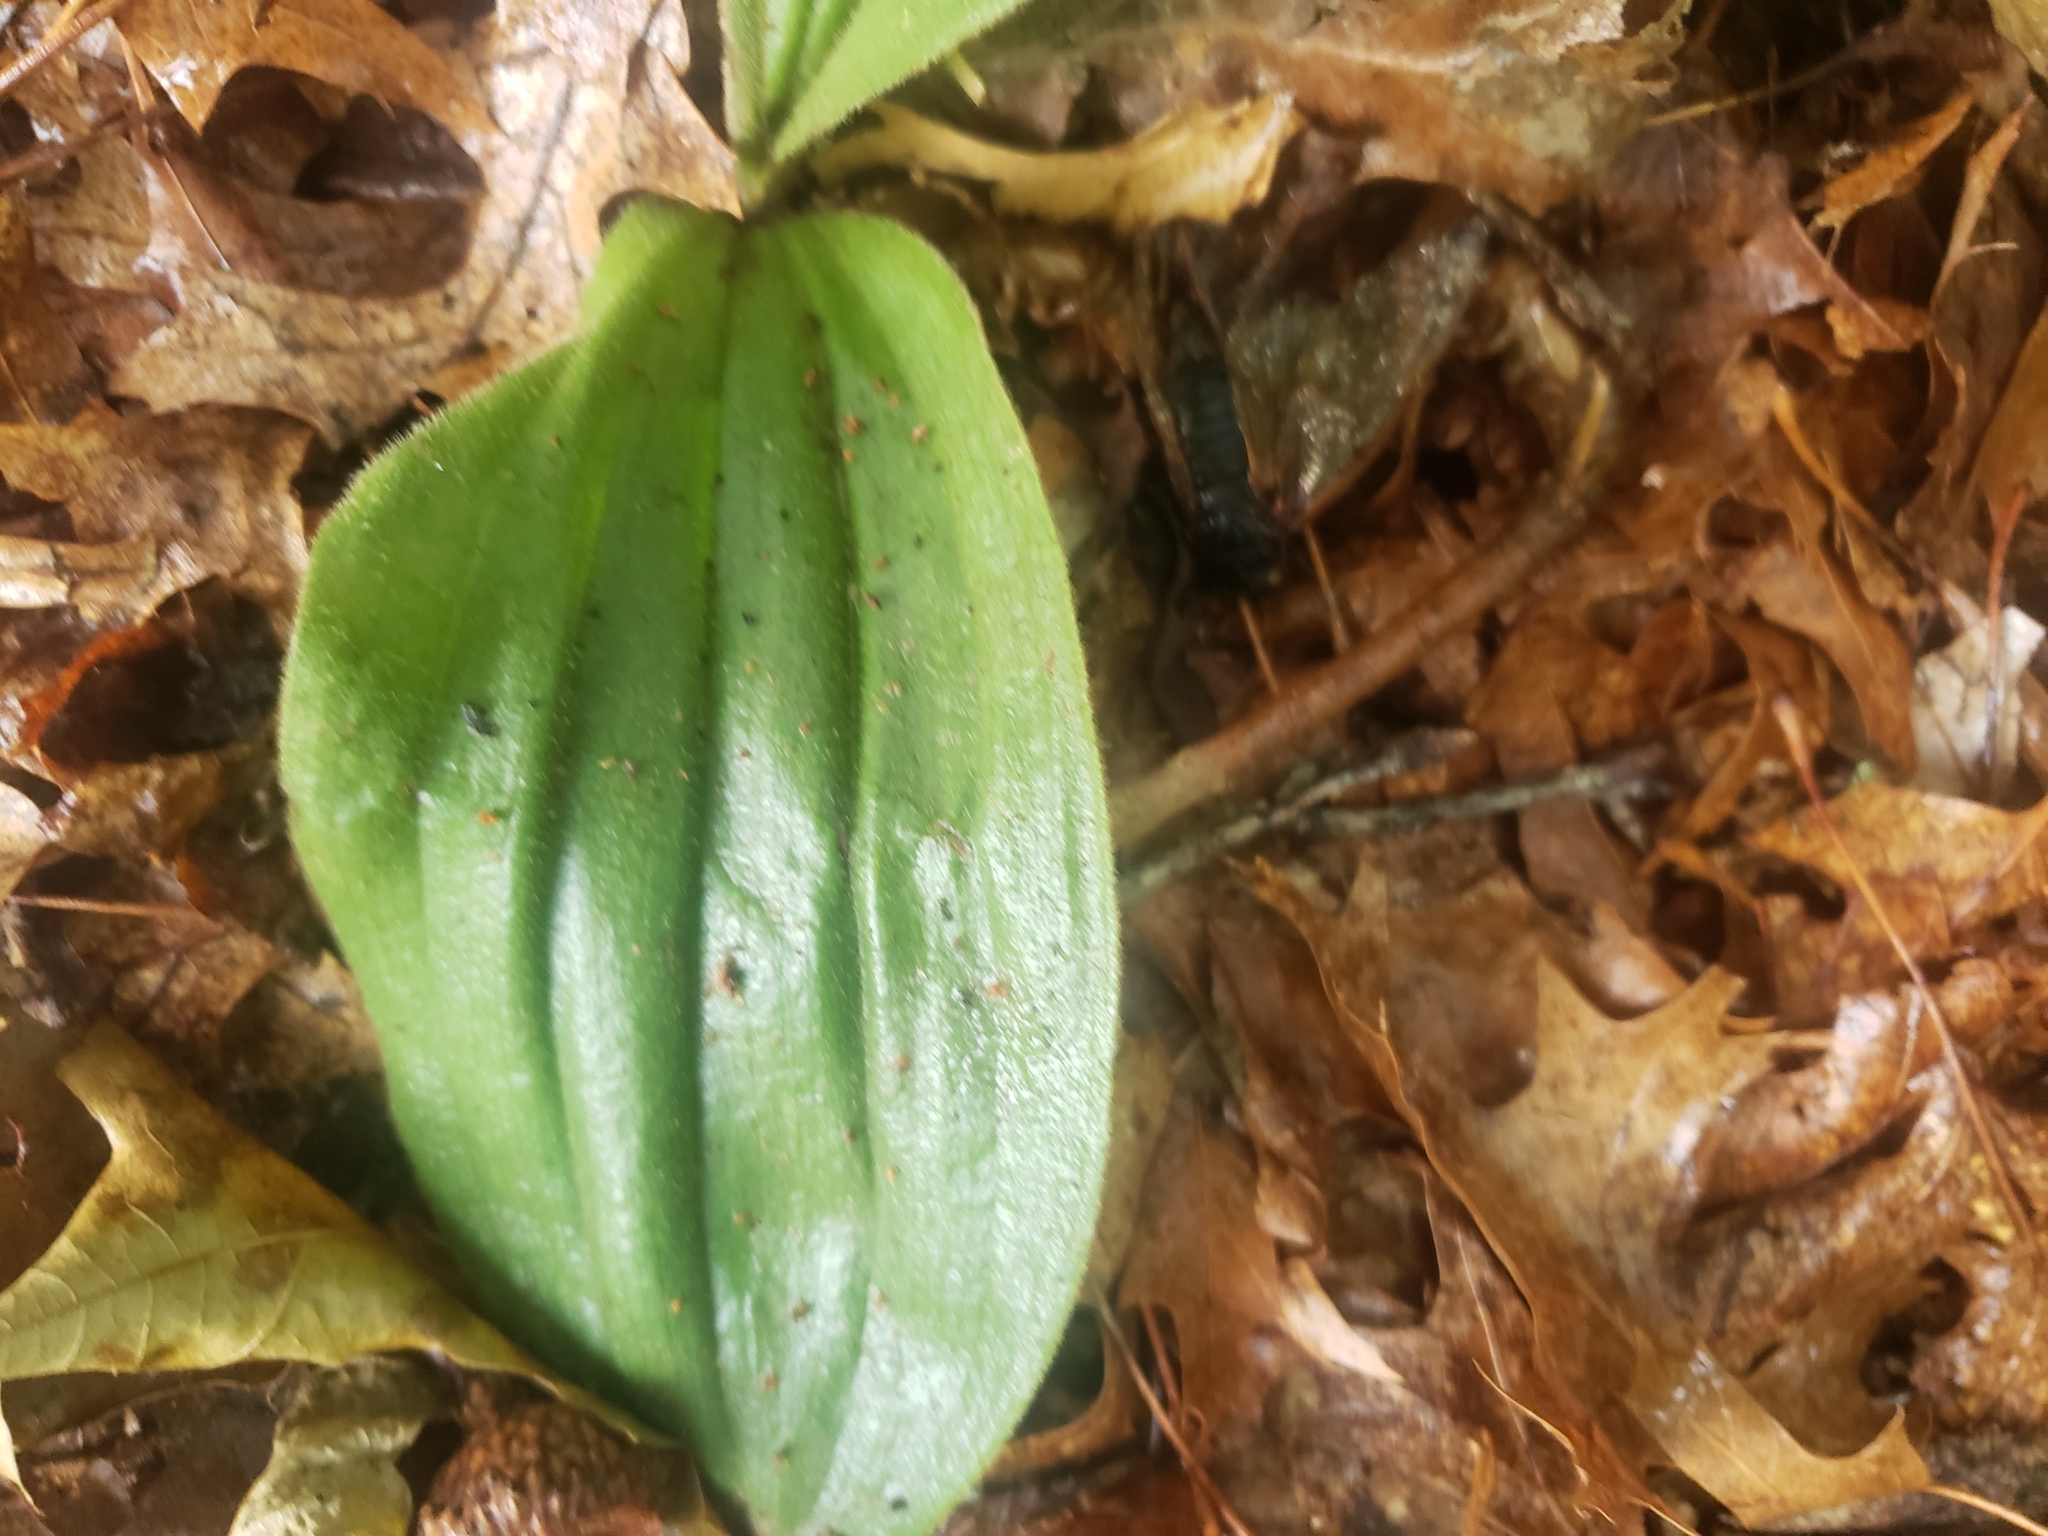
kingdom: Plantae
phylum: Tracheophyta
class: Liliopsida
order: Asparagales
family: Orchidaceae
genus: Cypripedium
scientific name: Cypripedium acaule
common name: Pink lady's-slipper
